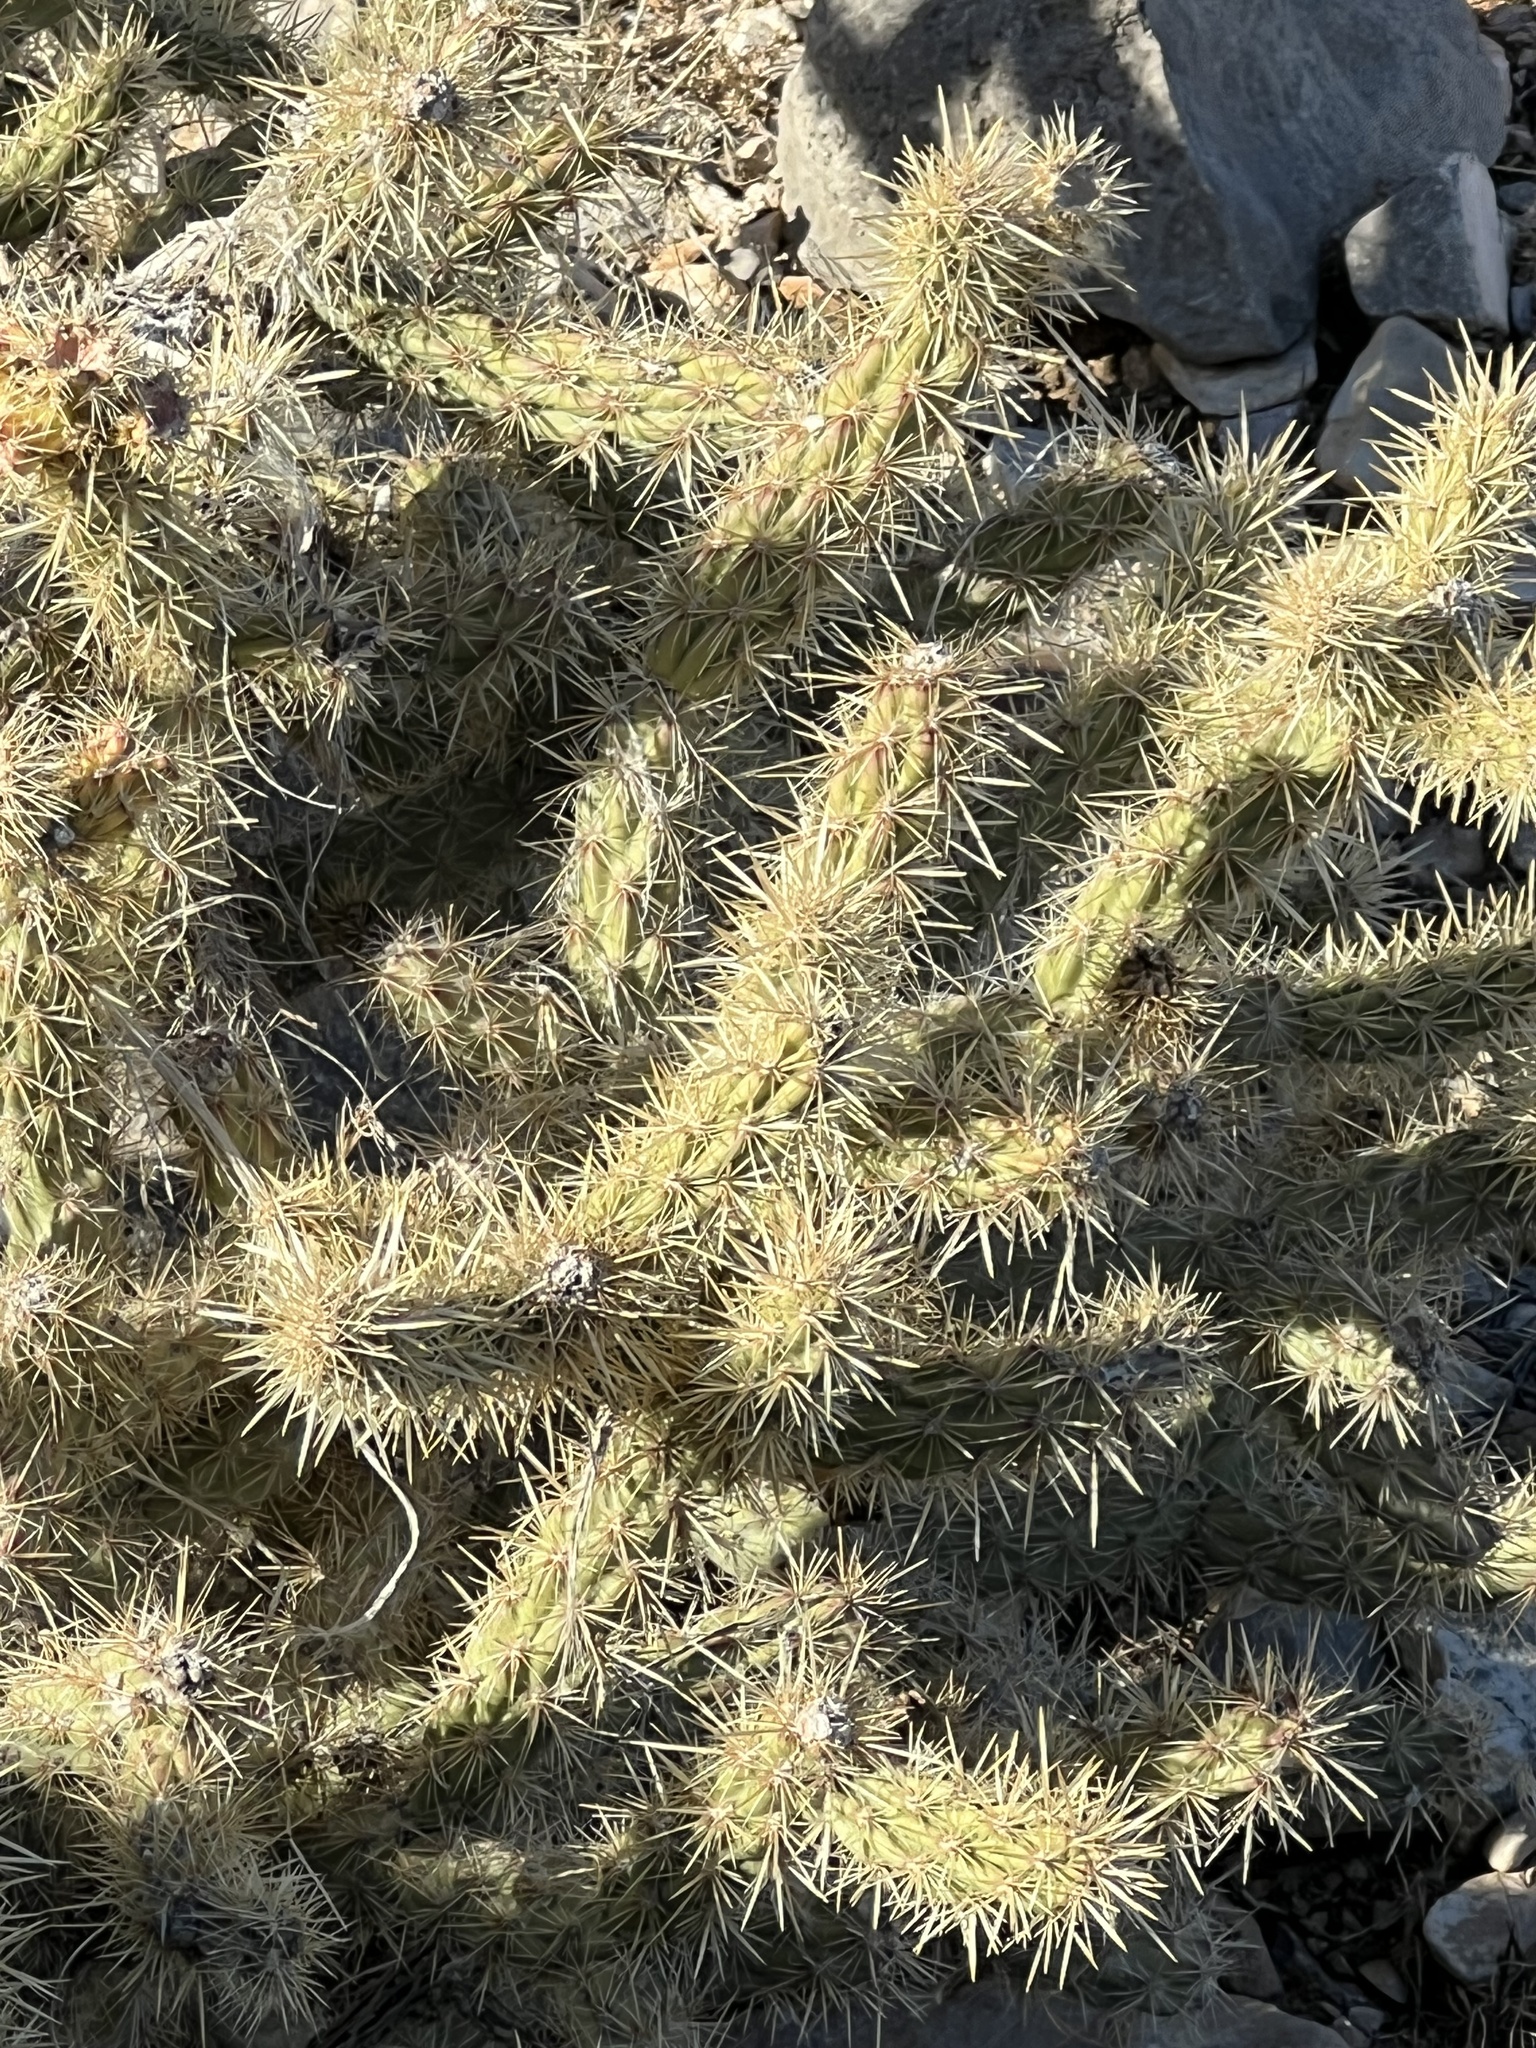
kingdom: Plantae
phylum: Tracheophyta
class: Magnoliopsida
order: Caryophyllales
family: Cactaceae
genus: Cylindropuntia
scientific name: Cylindropuntia acanthocarpa
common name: Buckhorn cholla
